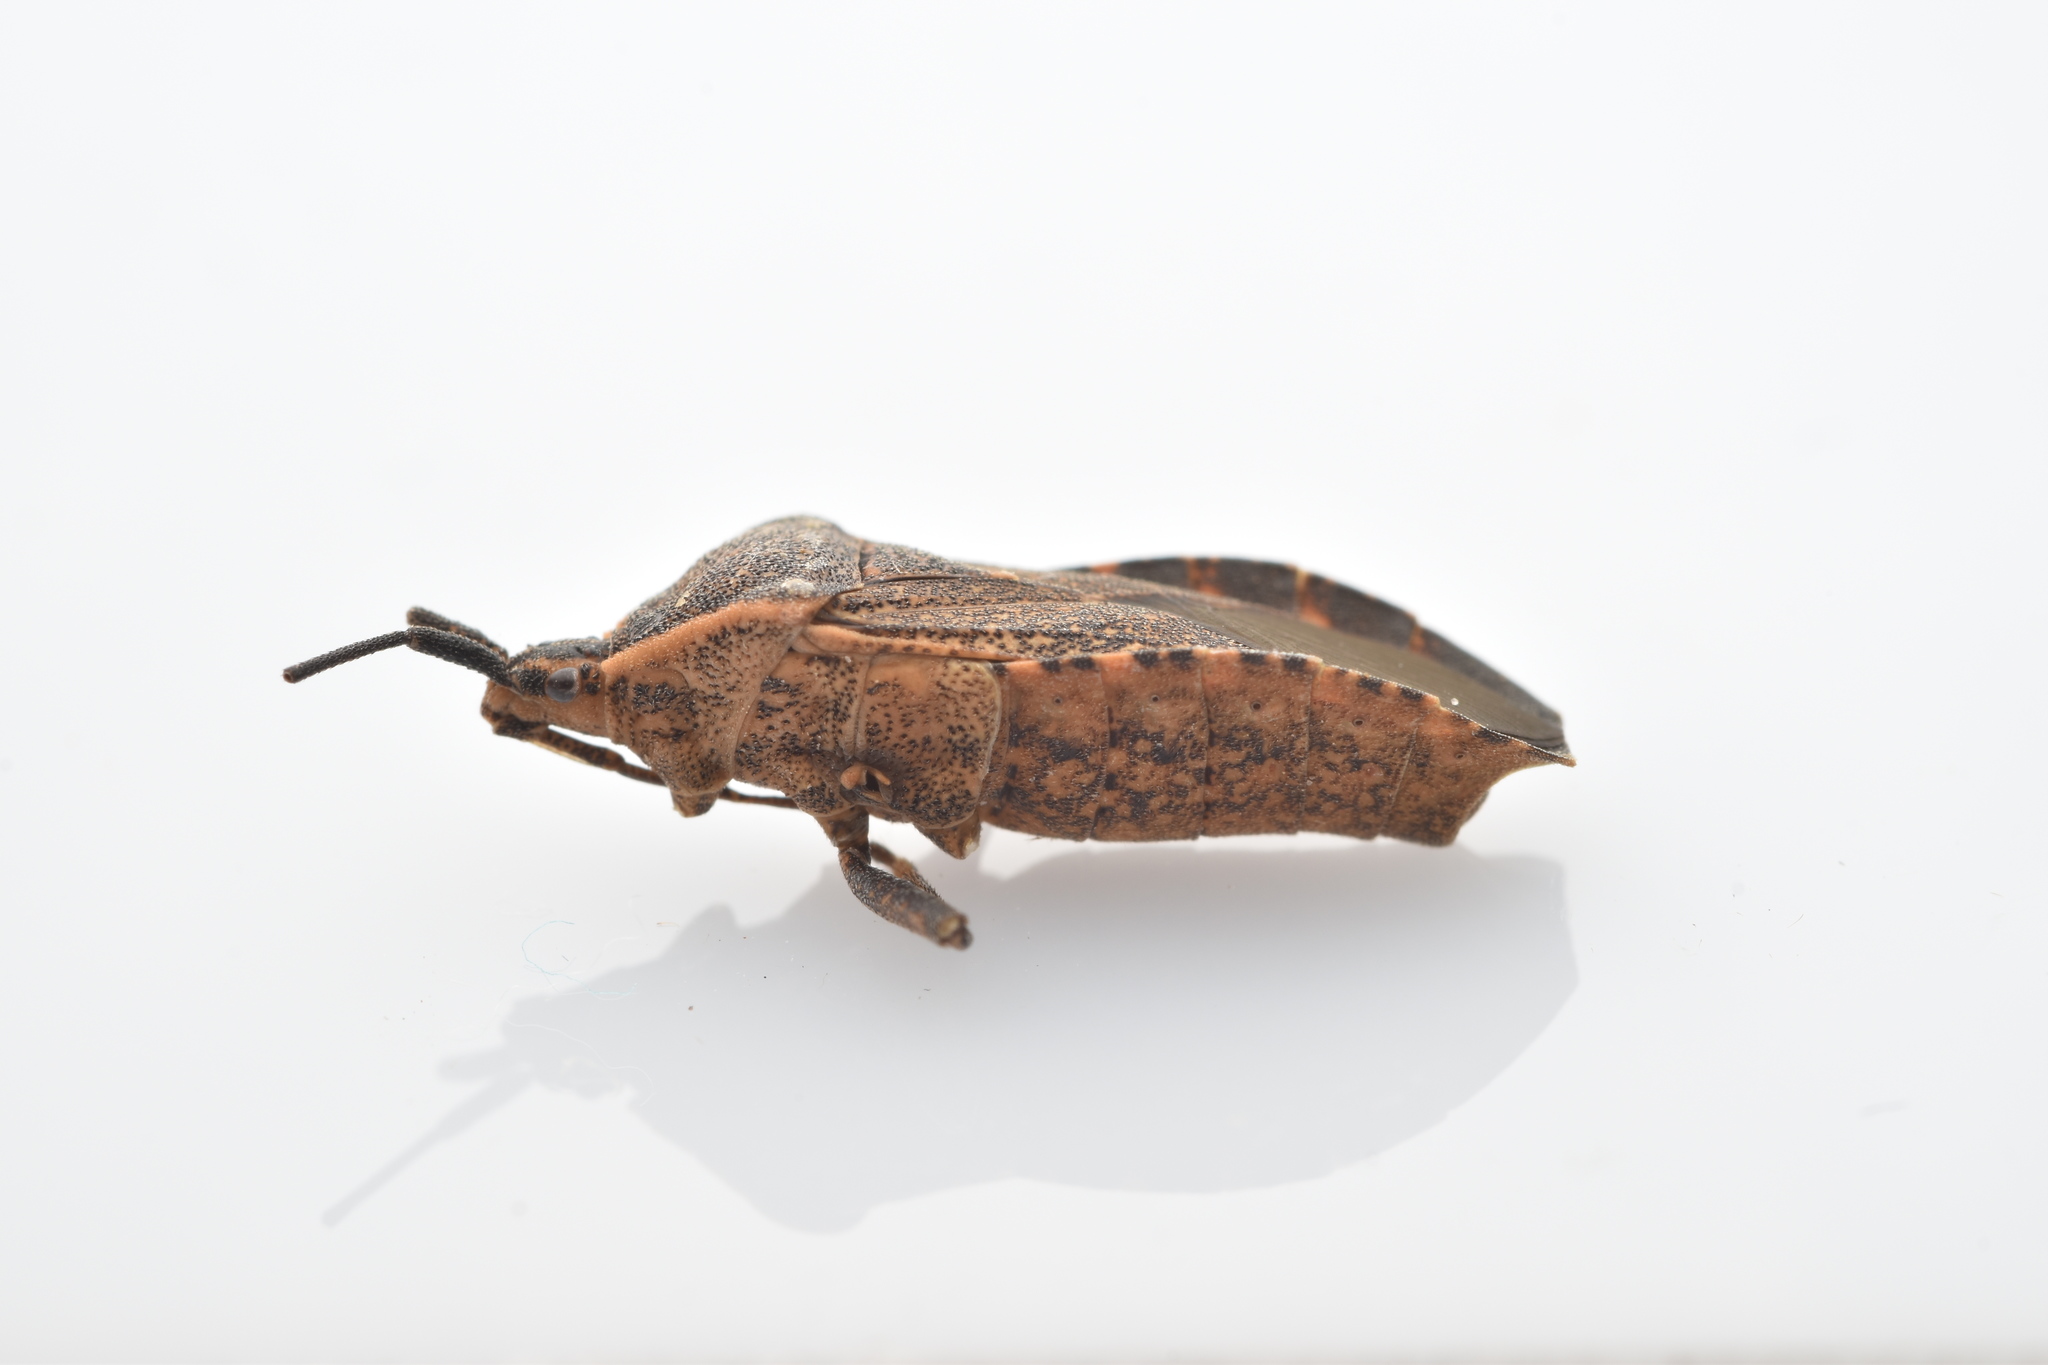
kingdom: Animalia
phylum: Arthropoda
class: Insecta
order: Hemiptera
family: Coreidae
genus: Anasa
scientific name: Anasa tristis
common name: Squash bug
